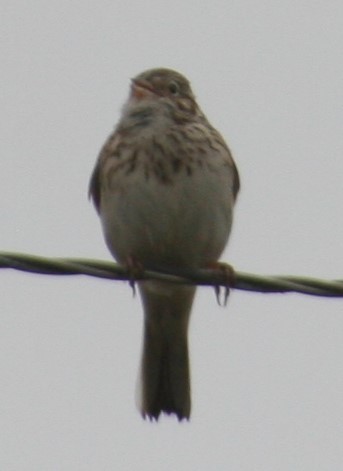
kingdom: Animalia
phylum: Chordata
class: Aves
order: Passeriformes
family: Passerellidae
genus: Pooecetes
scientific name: Pooecetes gramineus
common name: Vesper sparrow
